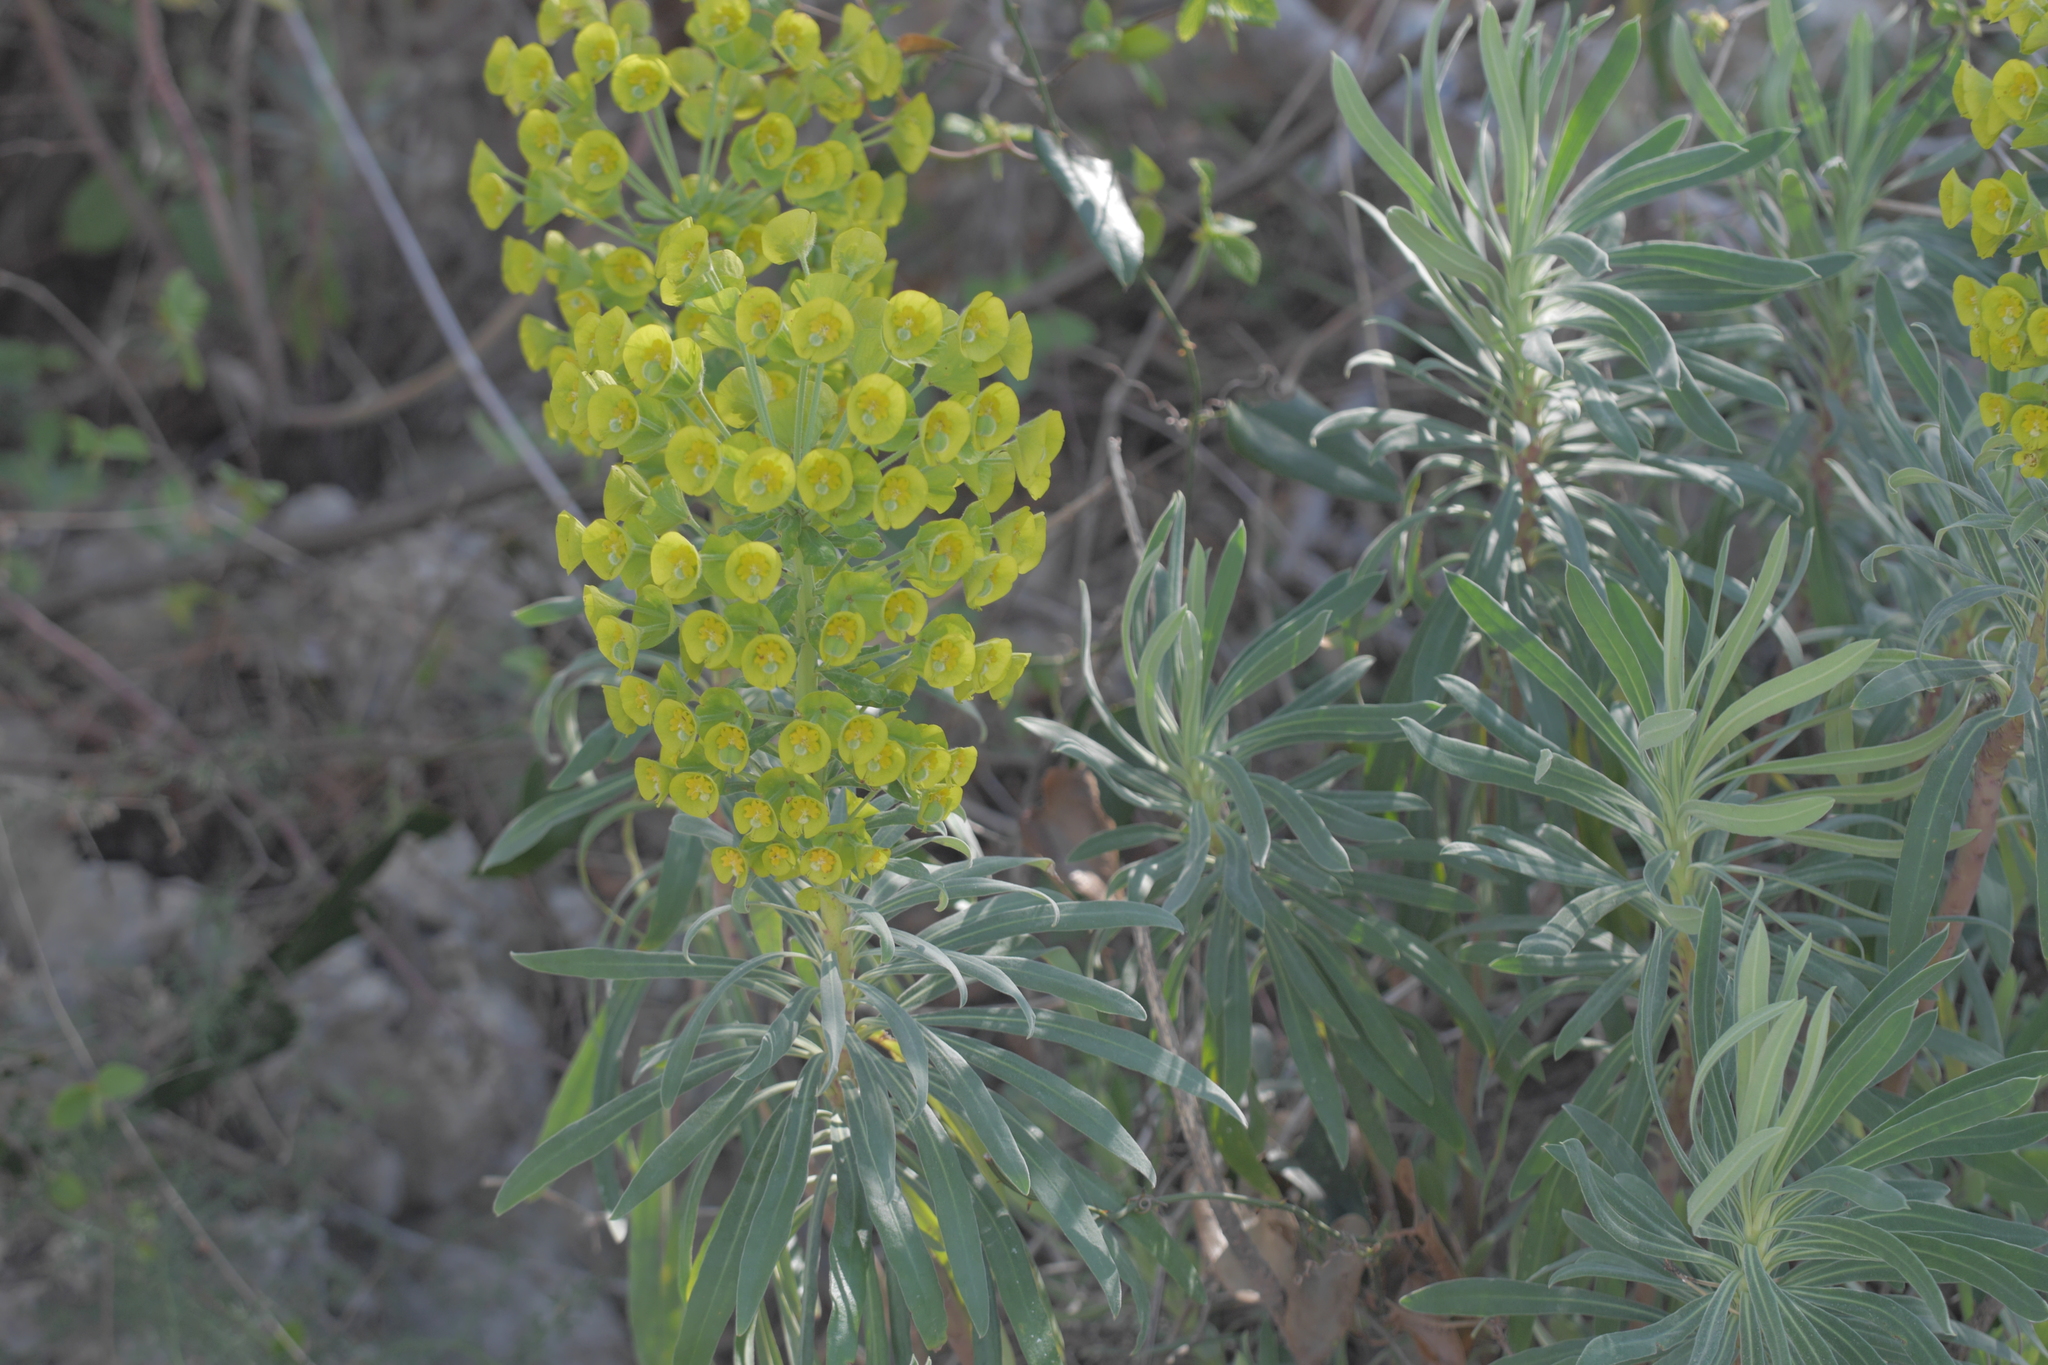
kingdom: Plantae
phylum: Tracheophyta
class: Magnoliopsida
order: Malpighiales
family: Euphorbiaceae
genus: Euphorbia
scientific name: Euphorbia characias
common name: Mediterranean spurge
